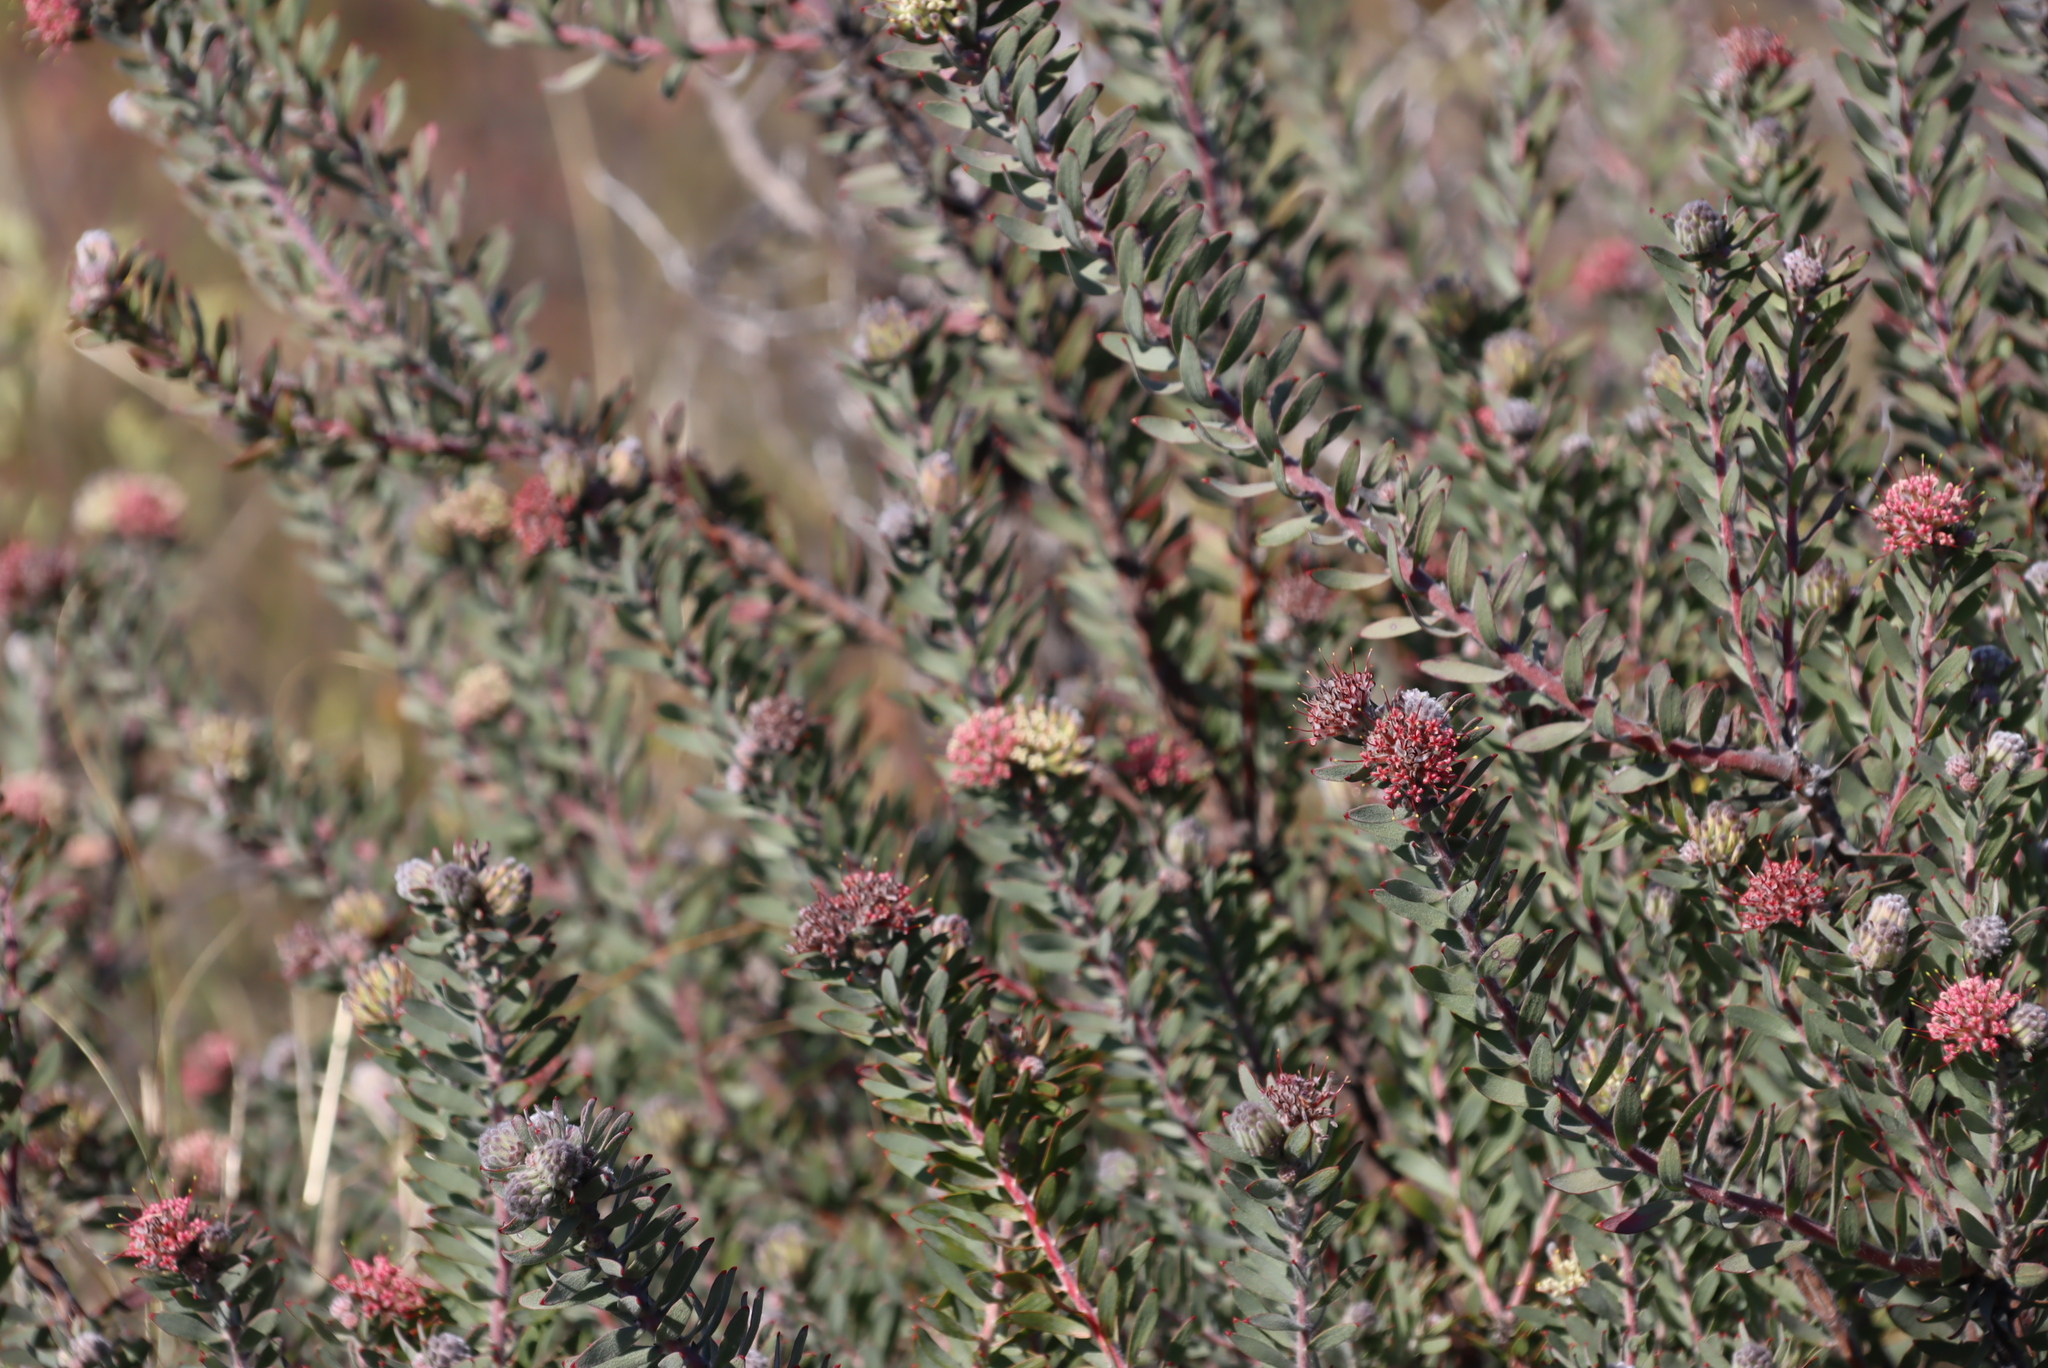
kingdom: Plantae
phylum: Tracheophyta
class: Magnoliopsida
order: Proteales
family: Proteaceae
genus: Leucospermum
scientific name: Leucospermum wittebergense
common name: Swartberg pincushion
